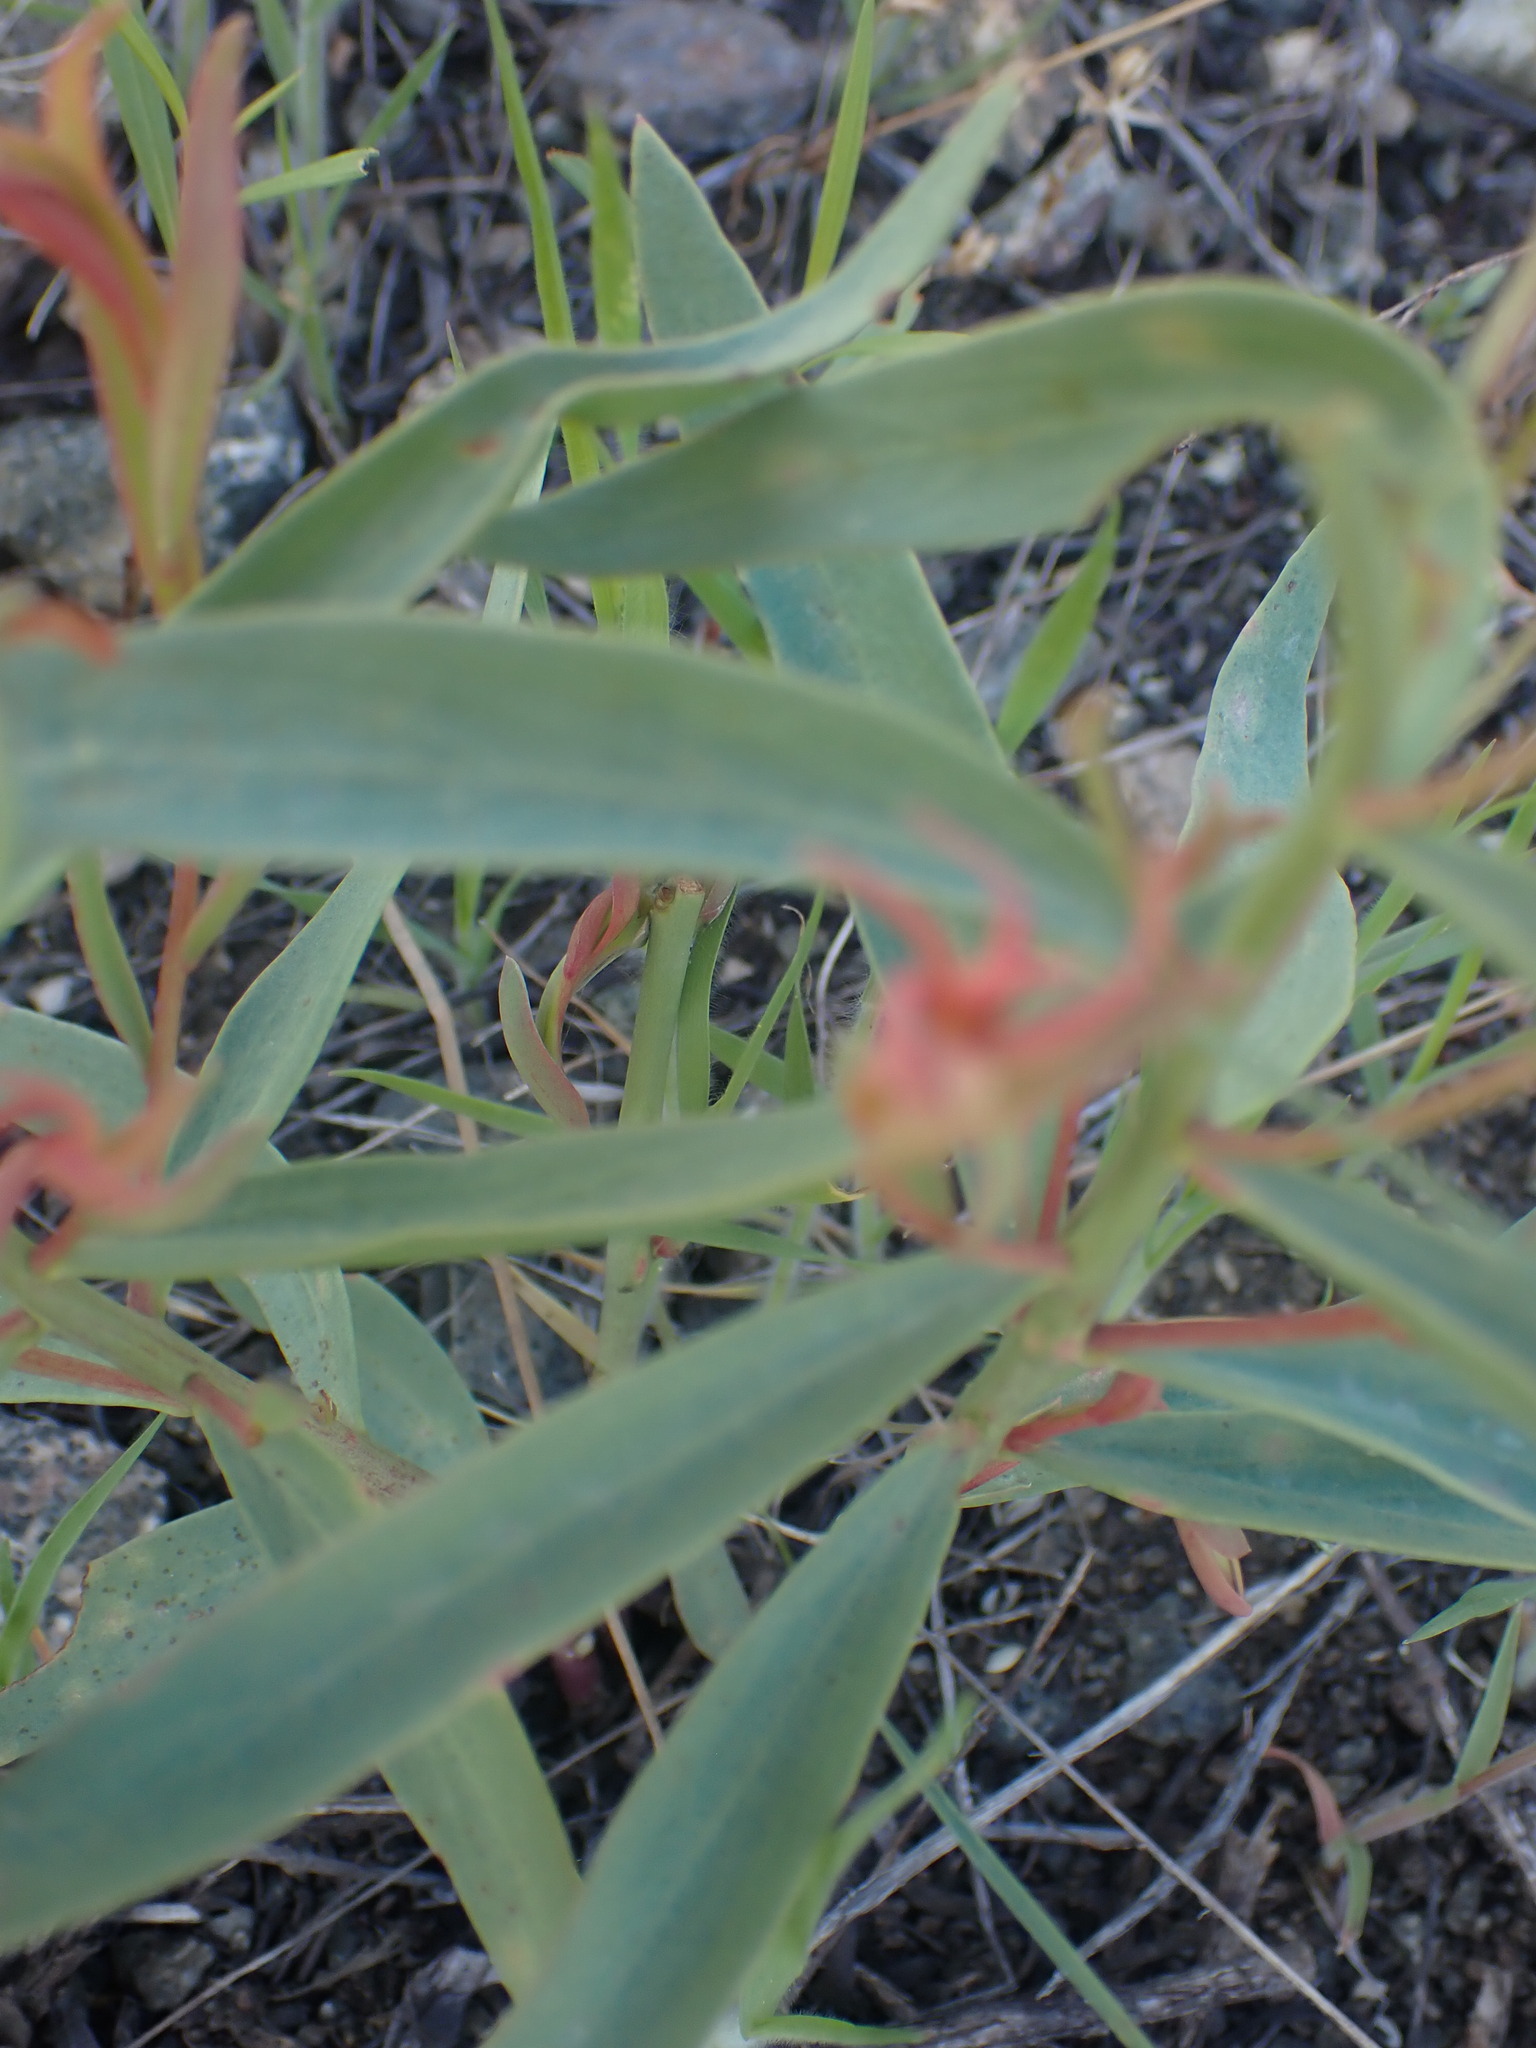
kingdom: Plantae
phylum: Tracheophyta
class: Magnoliopsida
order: Santalales
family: Comandraceae
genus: Comandra
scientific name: Comandra umbellata
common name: Bastard toadflax
